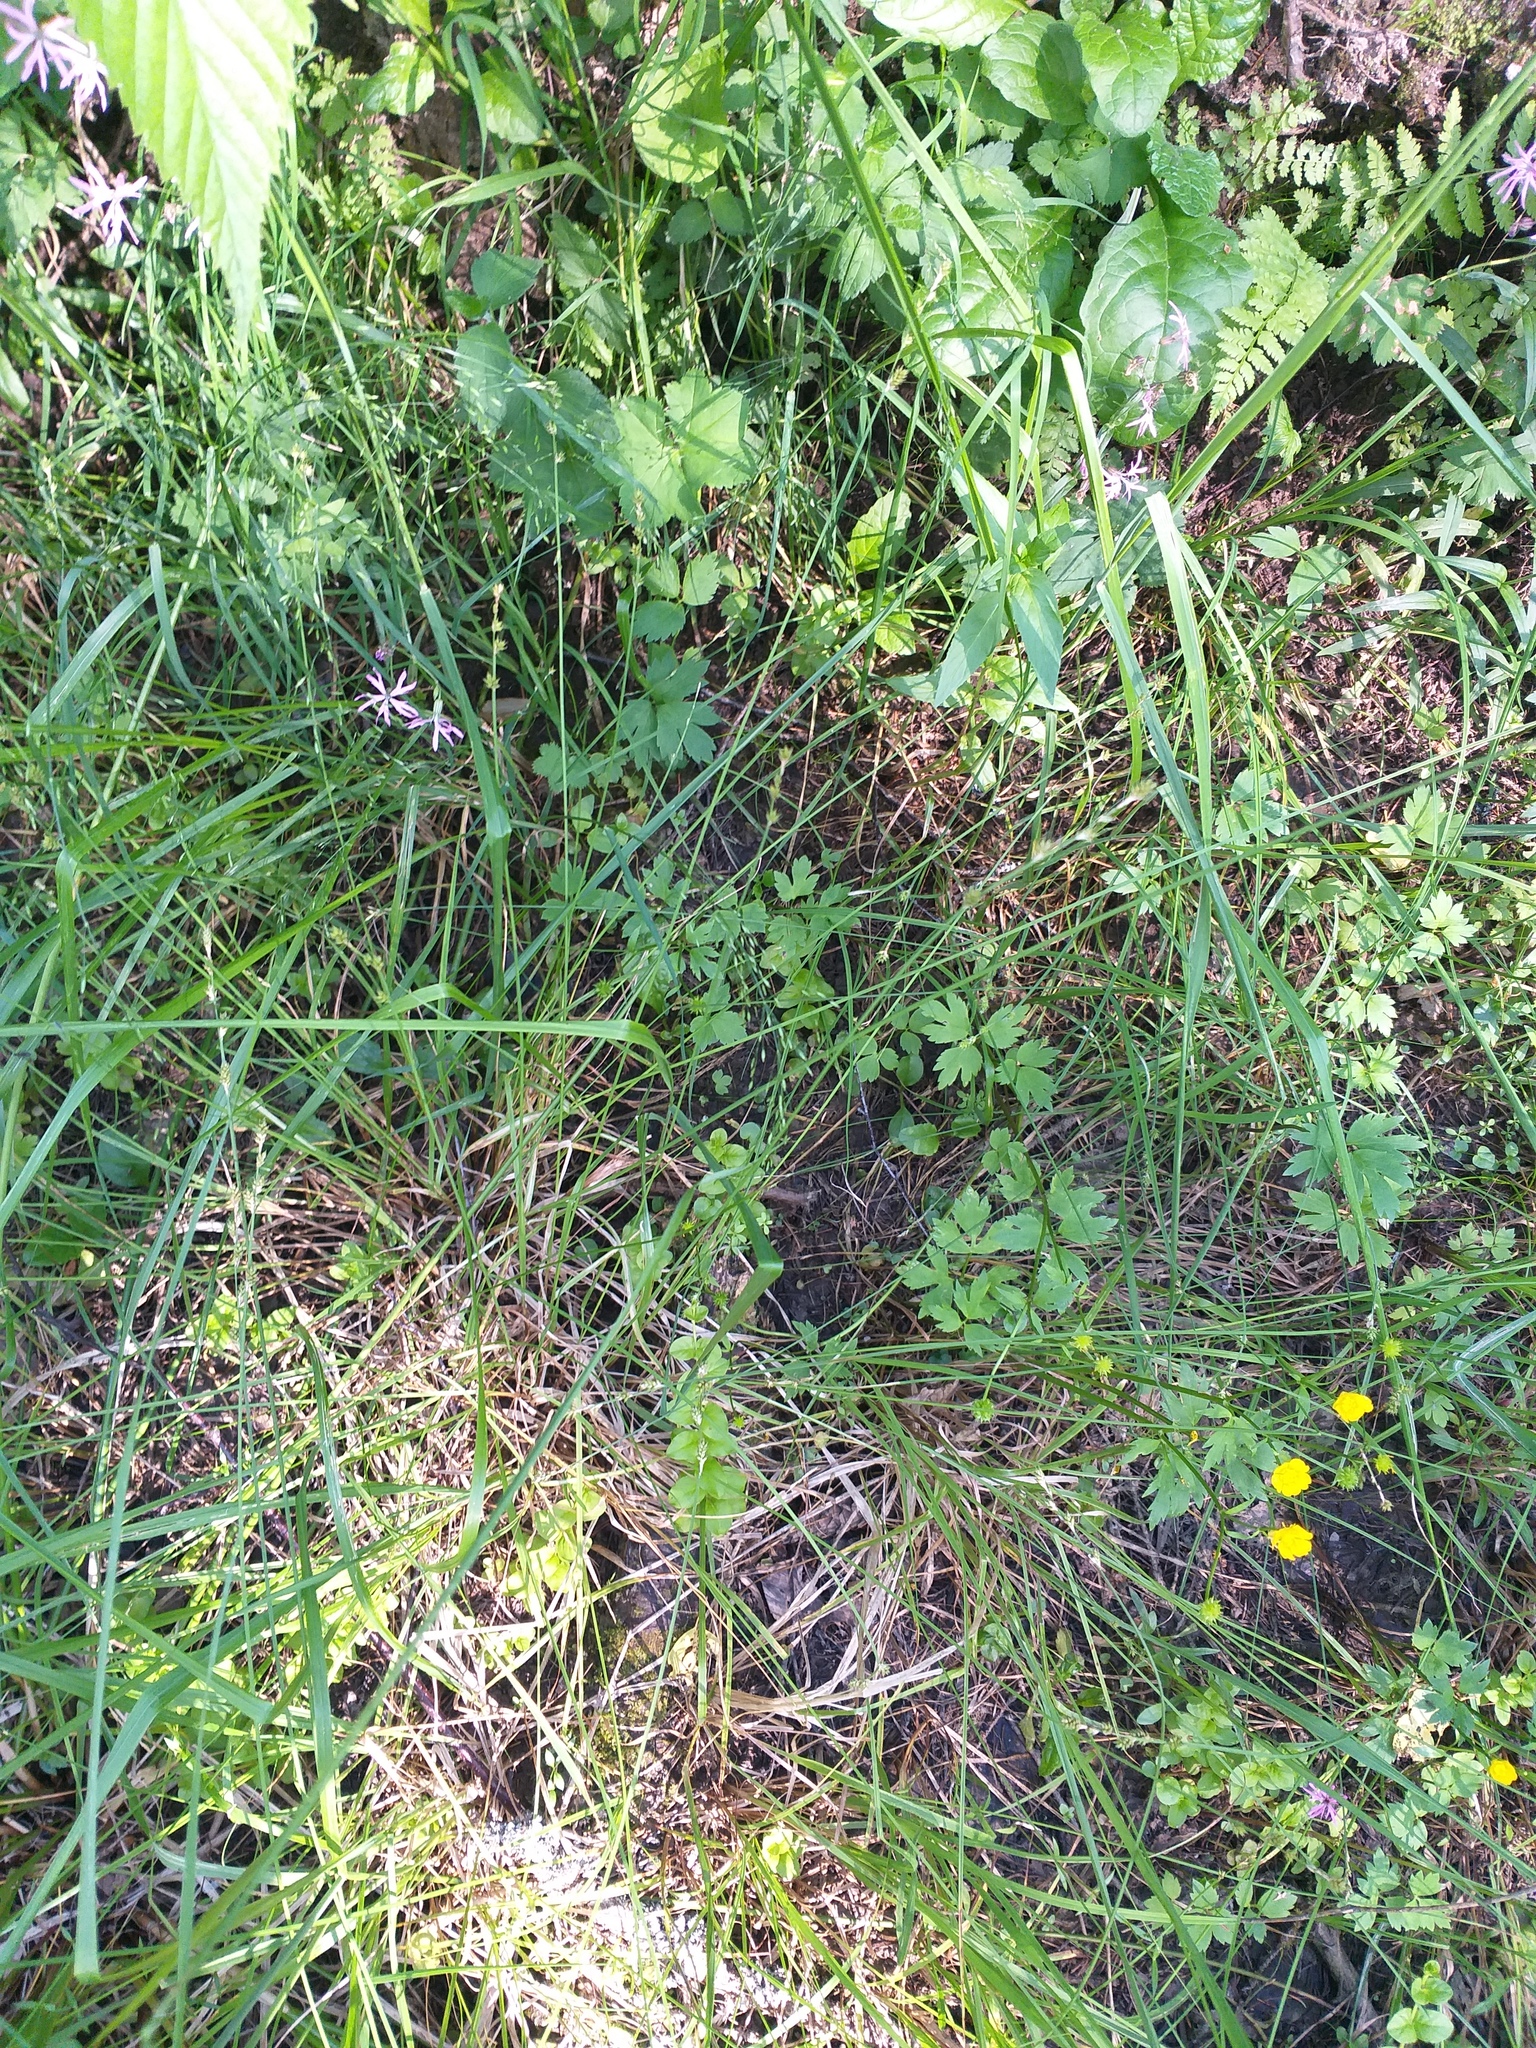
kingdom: Plantae
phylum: Tracheophyta
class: Liliopsida
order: Poales
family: Cyperaceae
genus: Carex
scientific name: Carex canescens
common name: White sedge
